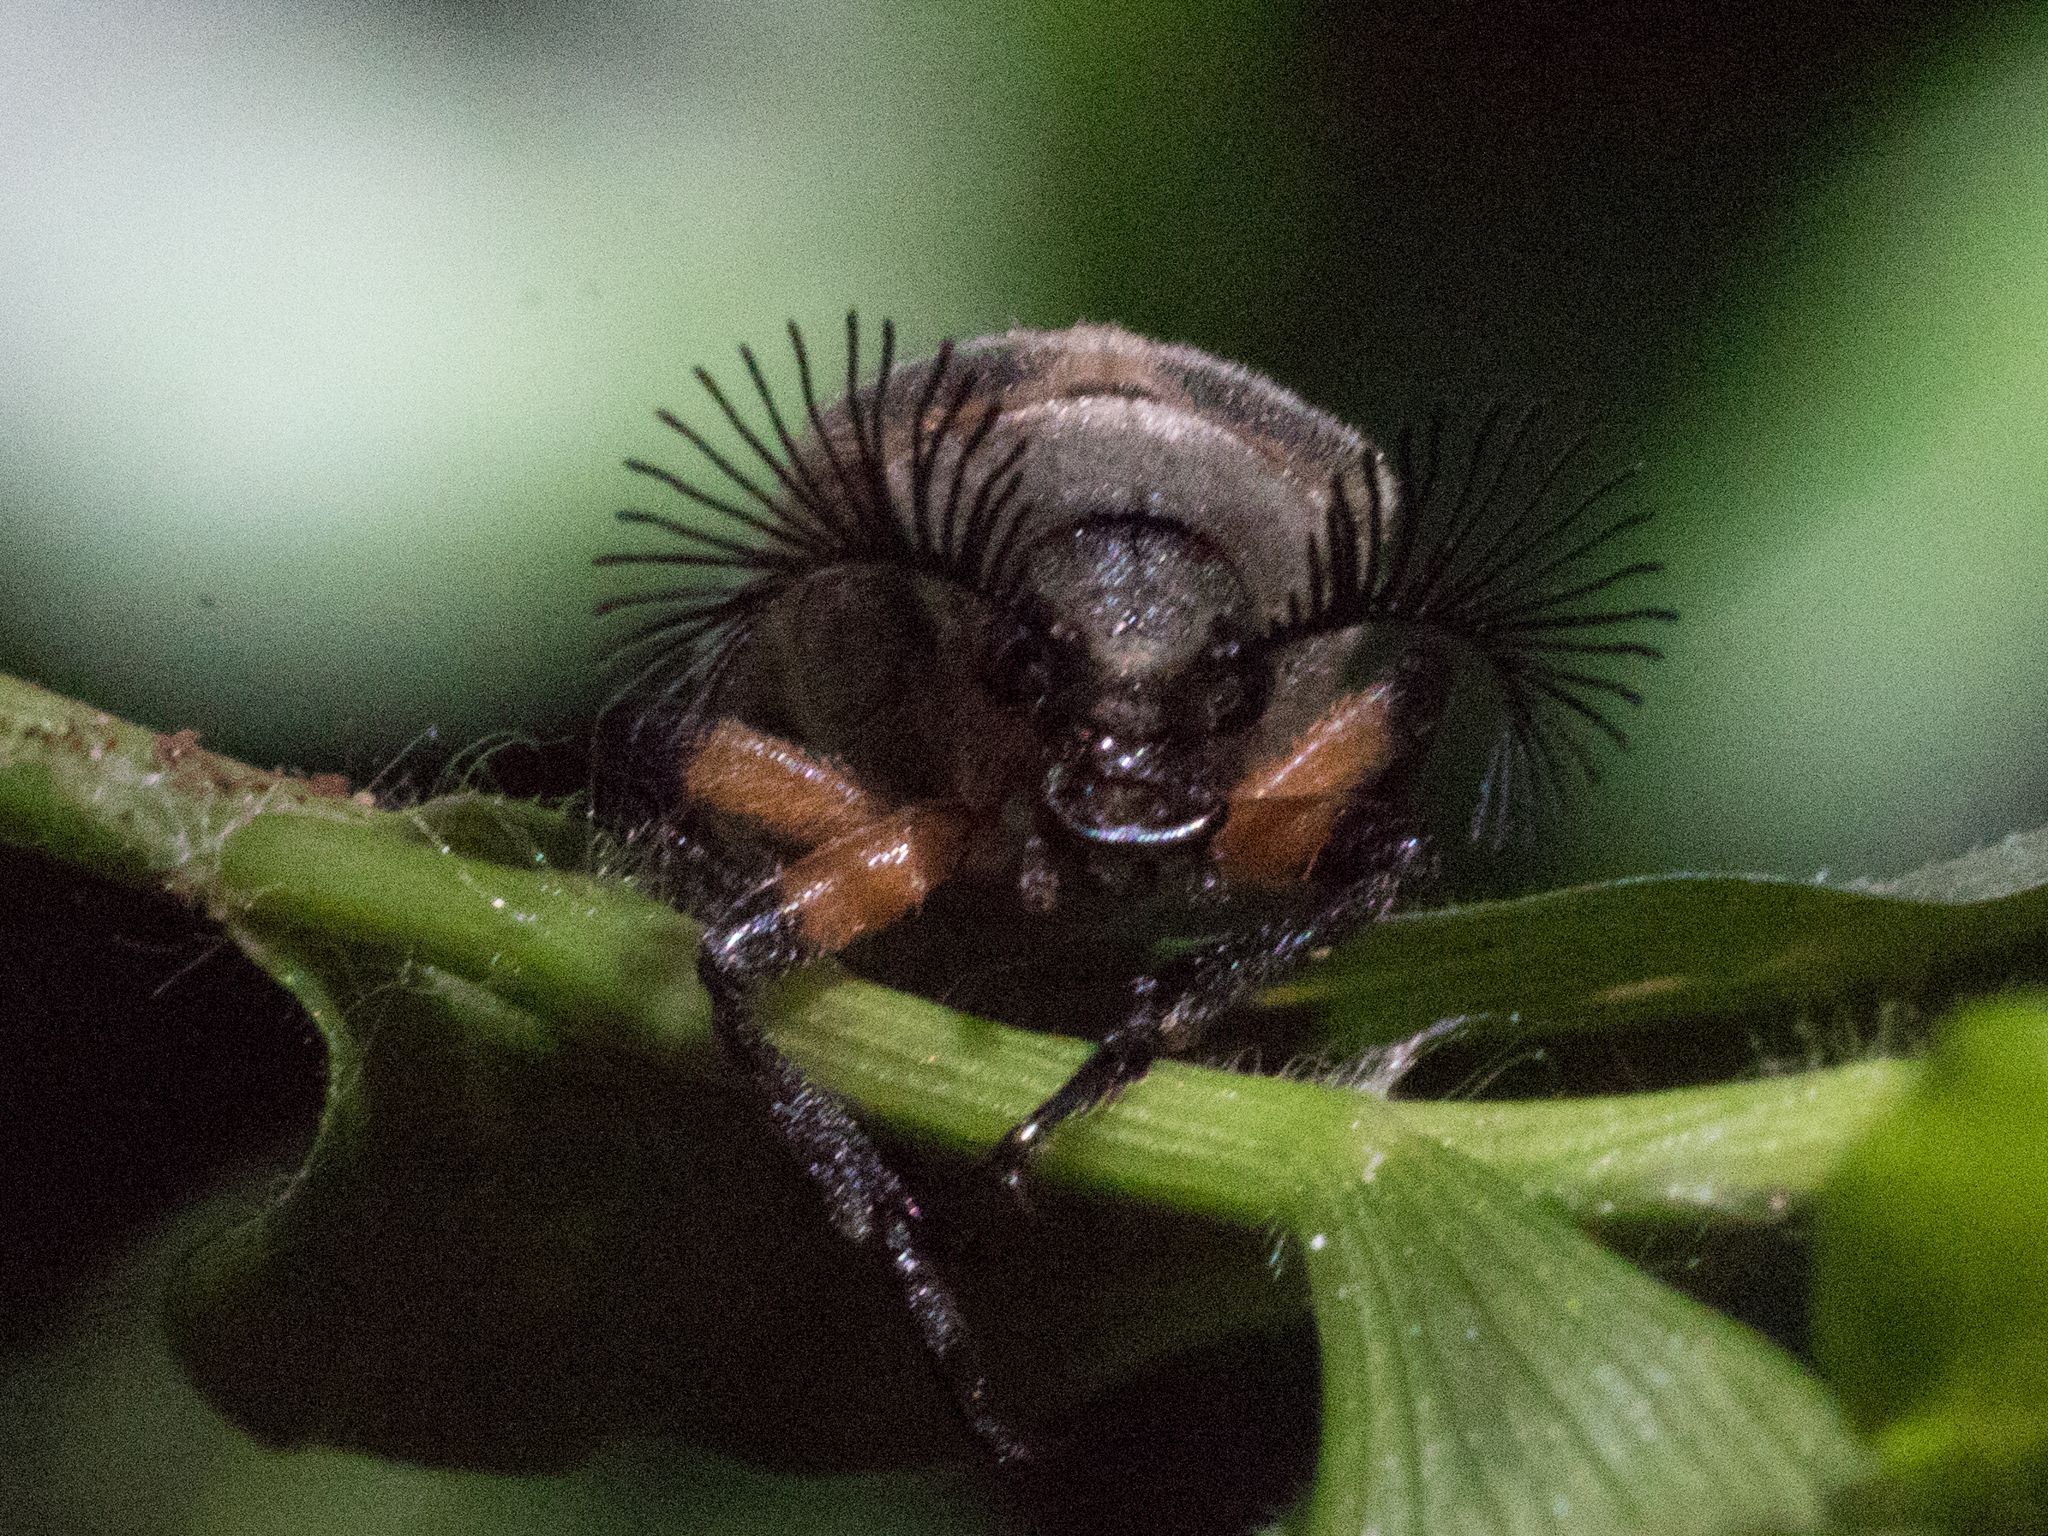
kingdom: Animalia
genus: Polytomus
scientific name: Polytomus
